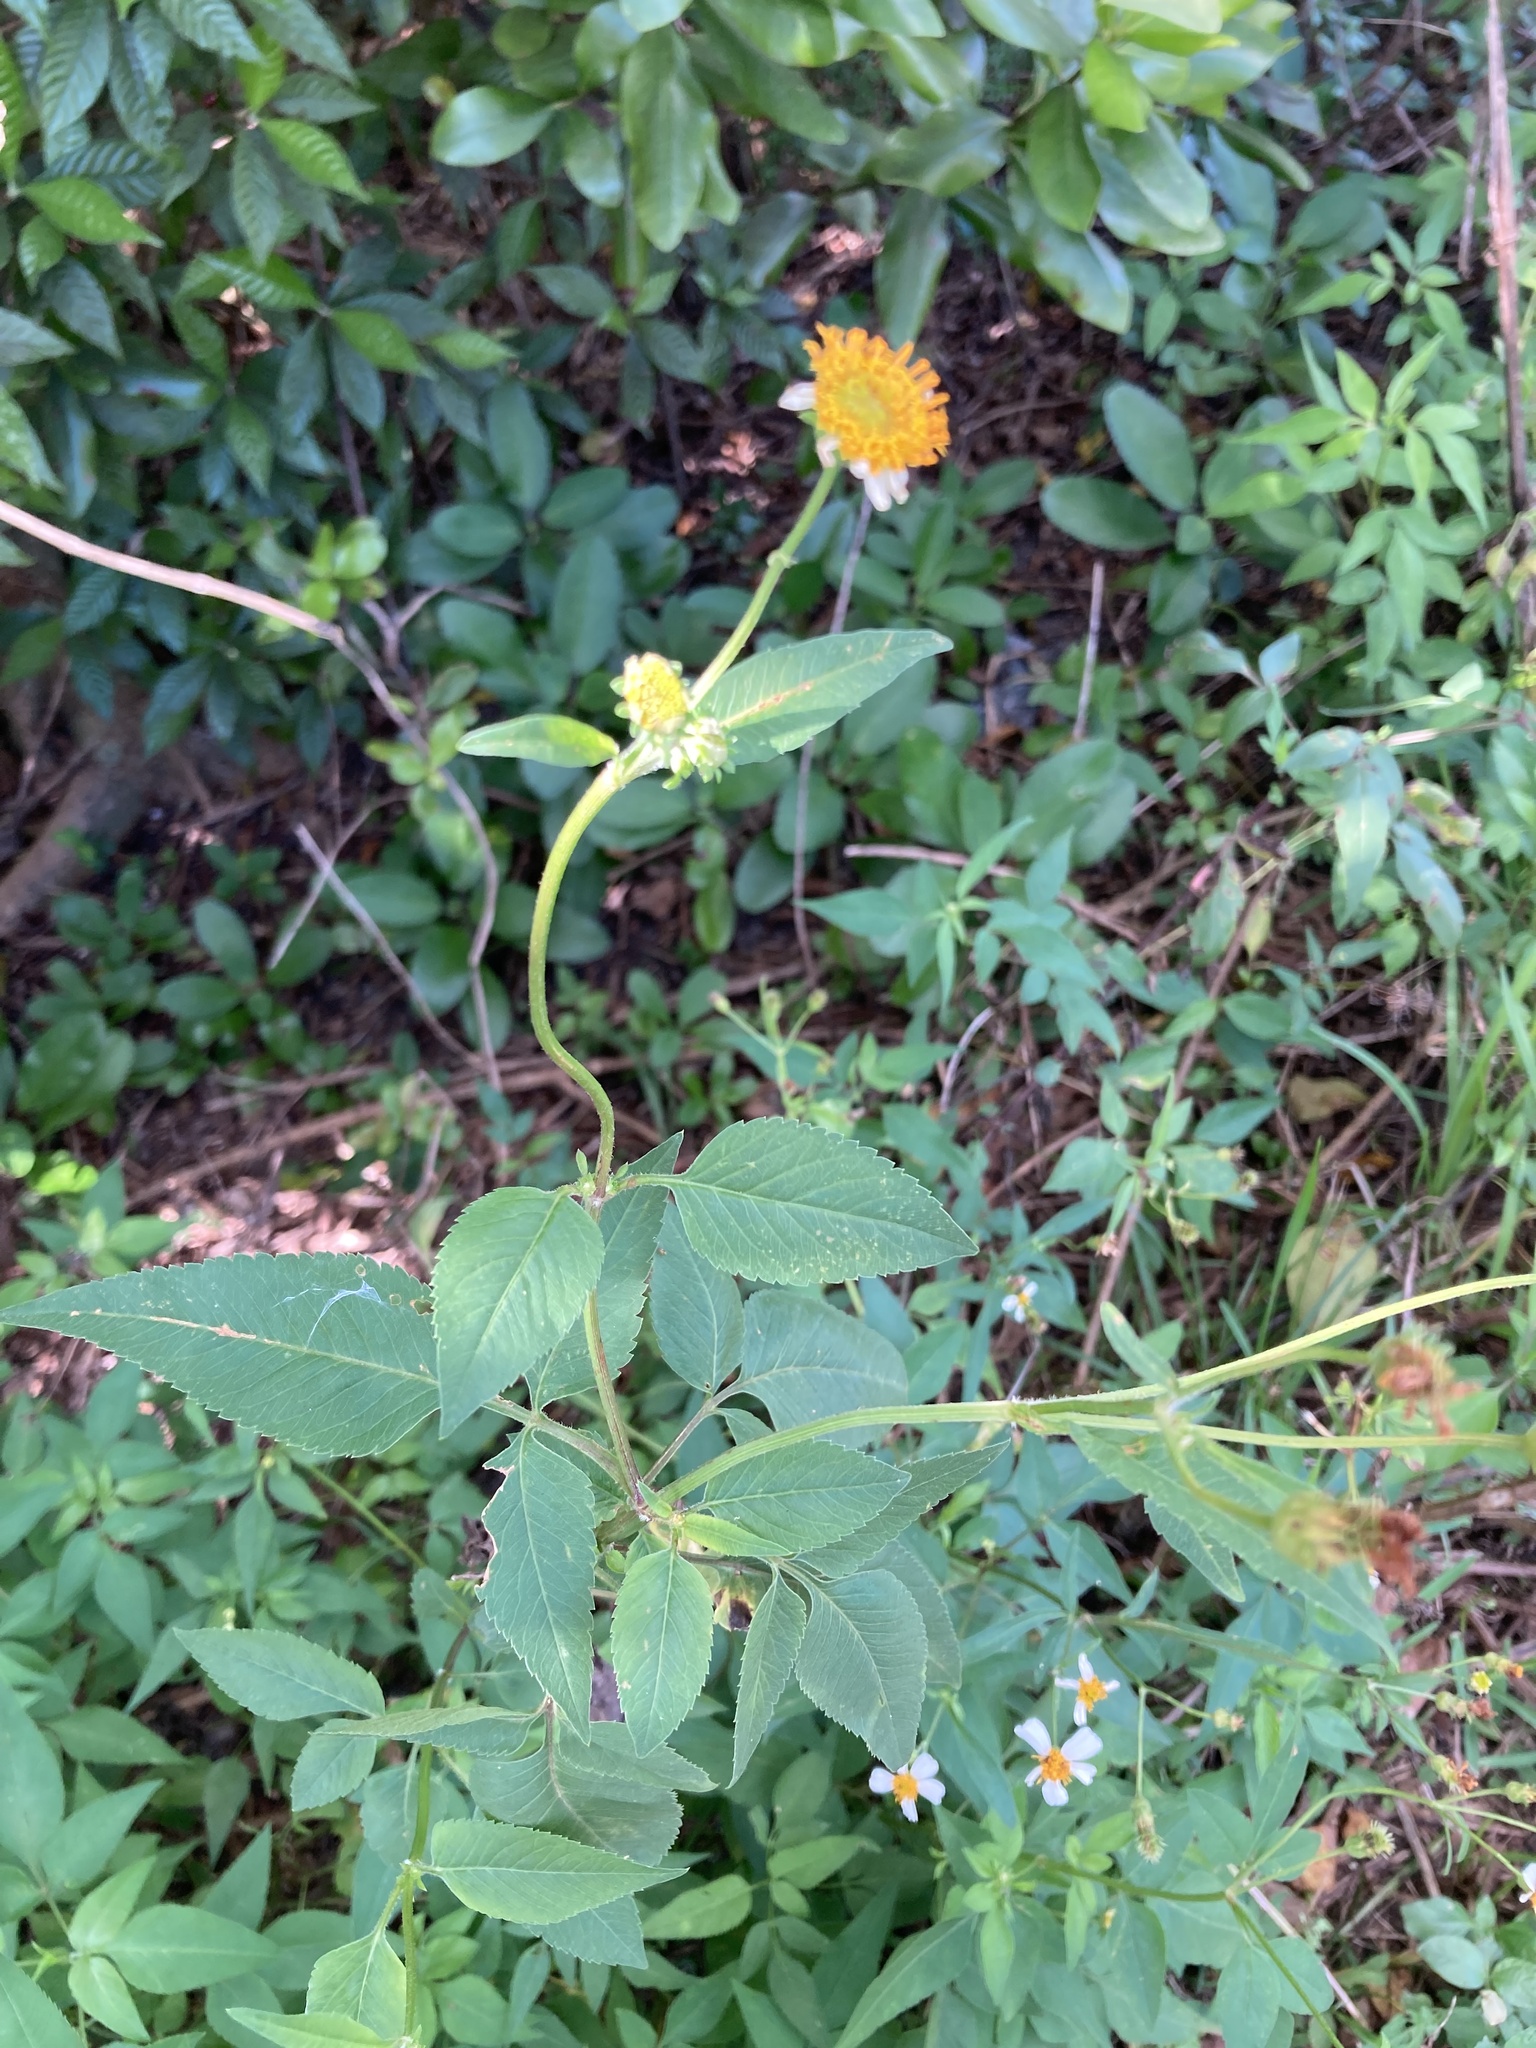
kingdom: Plantae
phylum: Tracheophyta
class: Magnoliopsida
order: Asterales
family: Asteraceae
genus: Bidens
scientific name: Bidens alba
